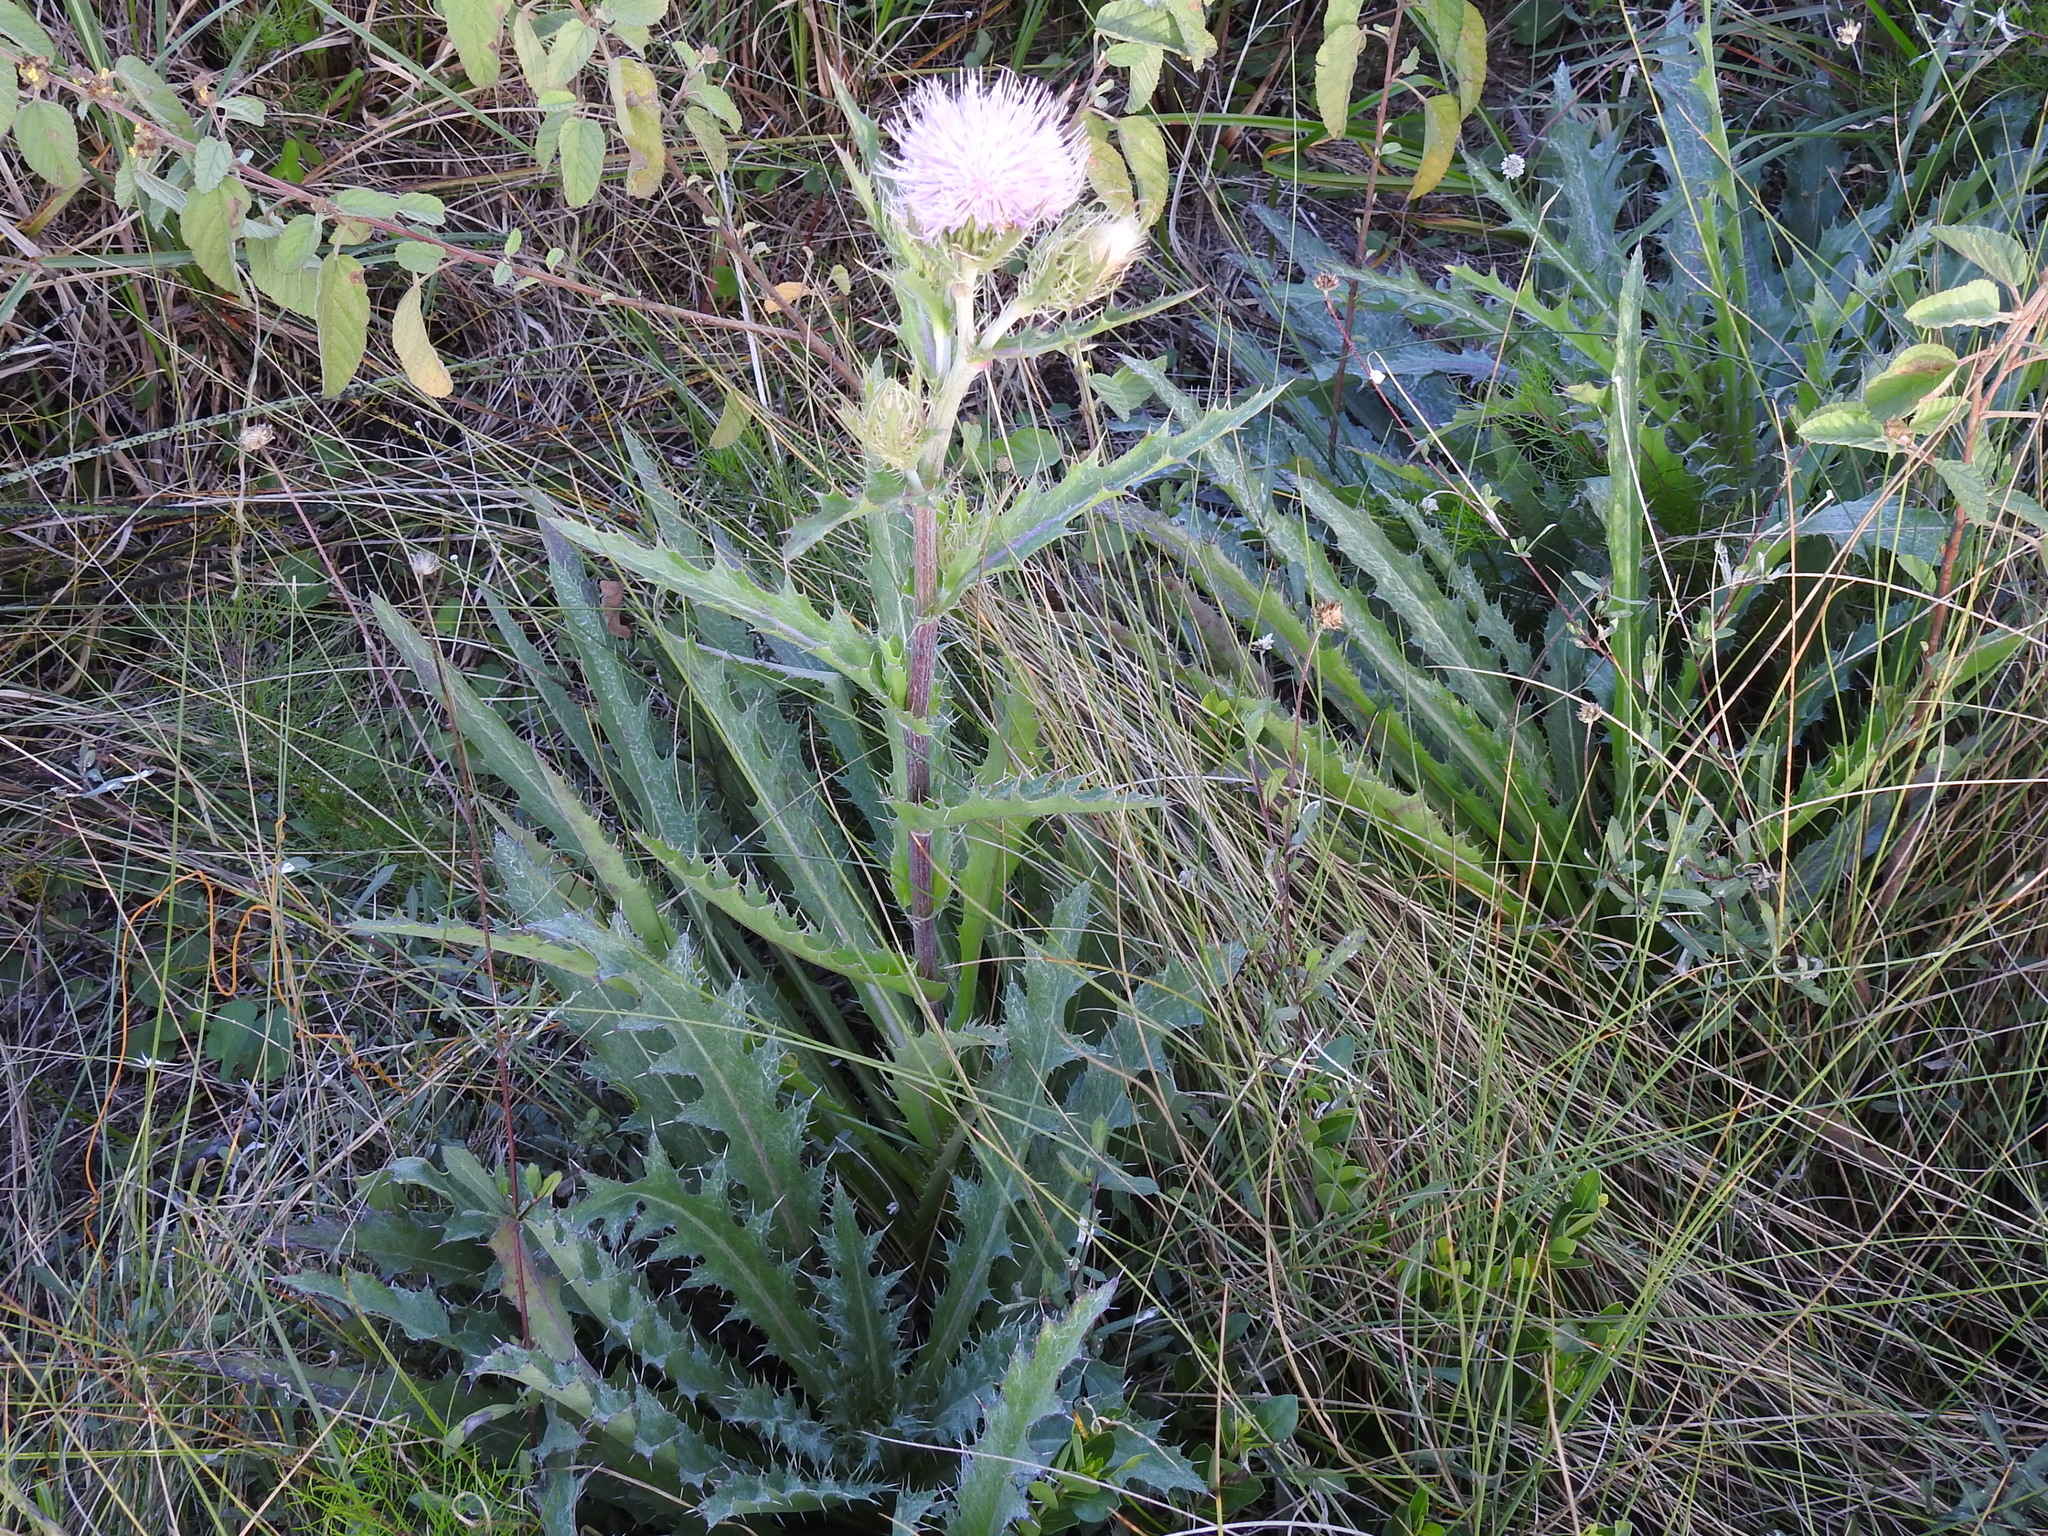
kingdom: Plantae
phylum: Tracheophyta
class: Magnoliopsida
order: Asterales
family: Asteraceae
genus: Cirsium
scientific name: Cirsium horridulum
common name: Bristly thistle
